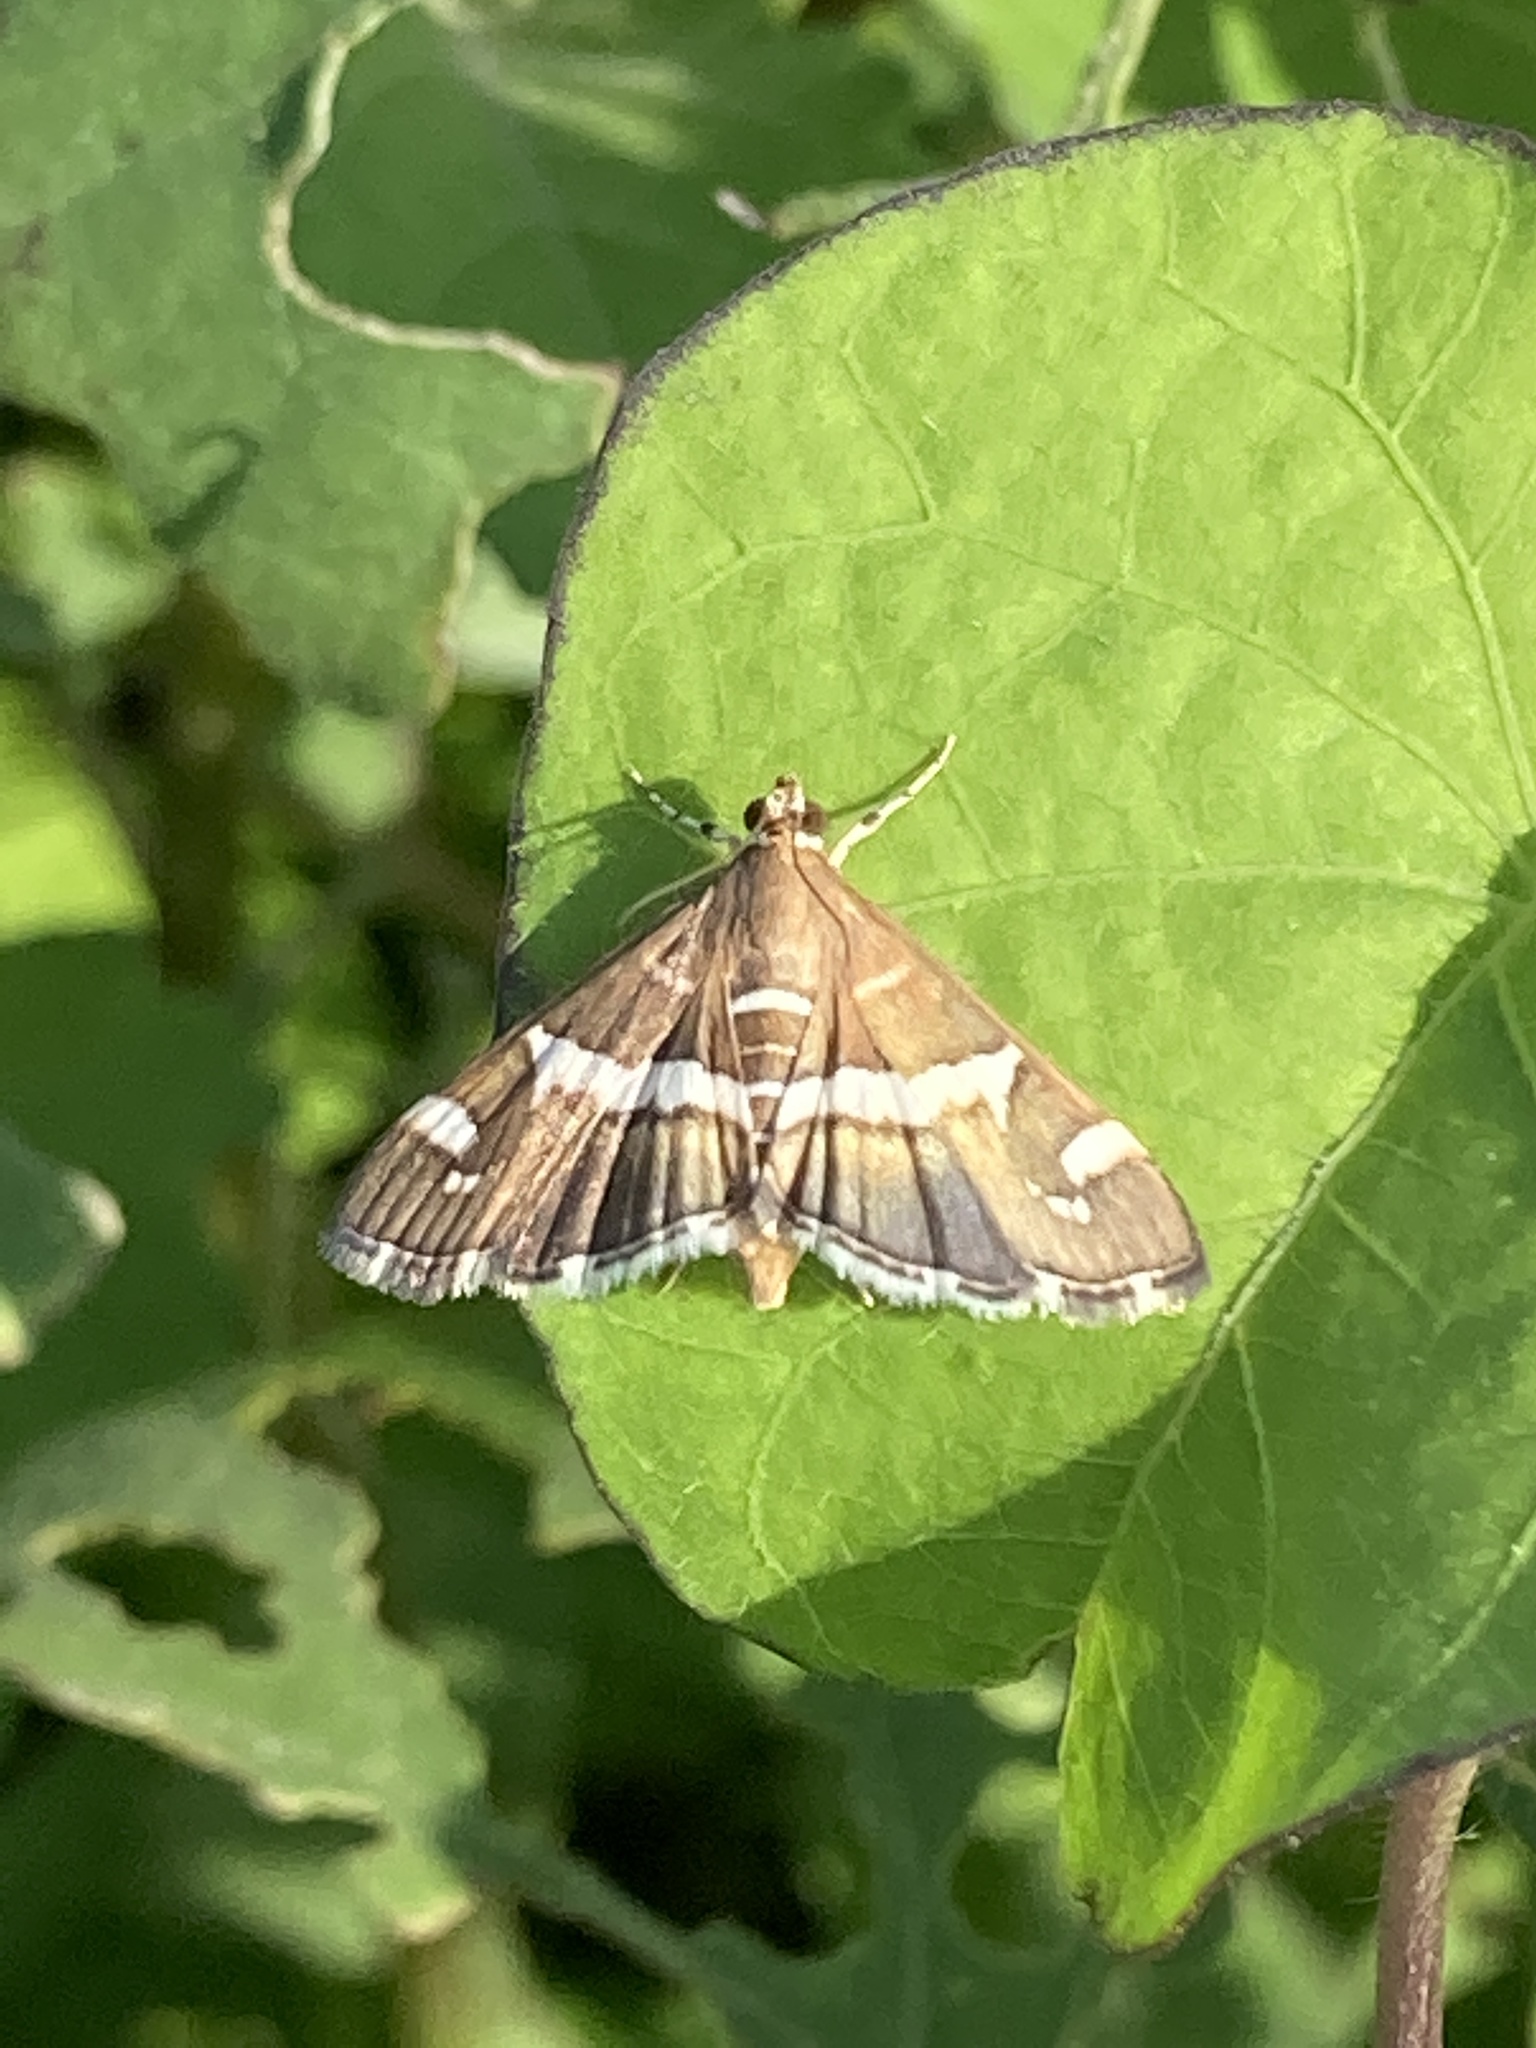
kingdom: Animalia
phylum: Arthropoda
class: Insecta
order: Lepidoptera
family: Crambidae
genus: Spoladea
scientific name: Spoladea recurvalis
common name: Beet webworm moth
